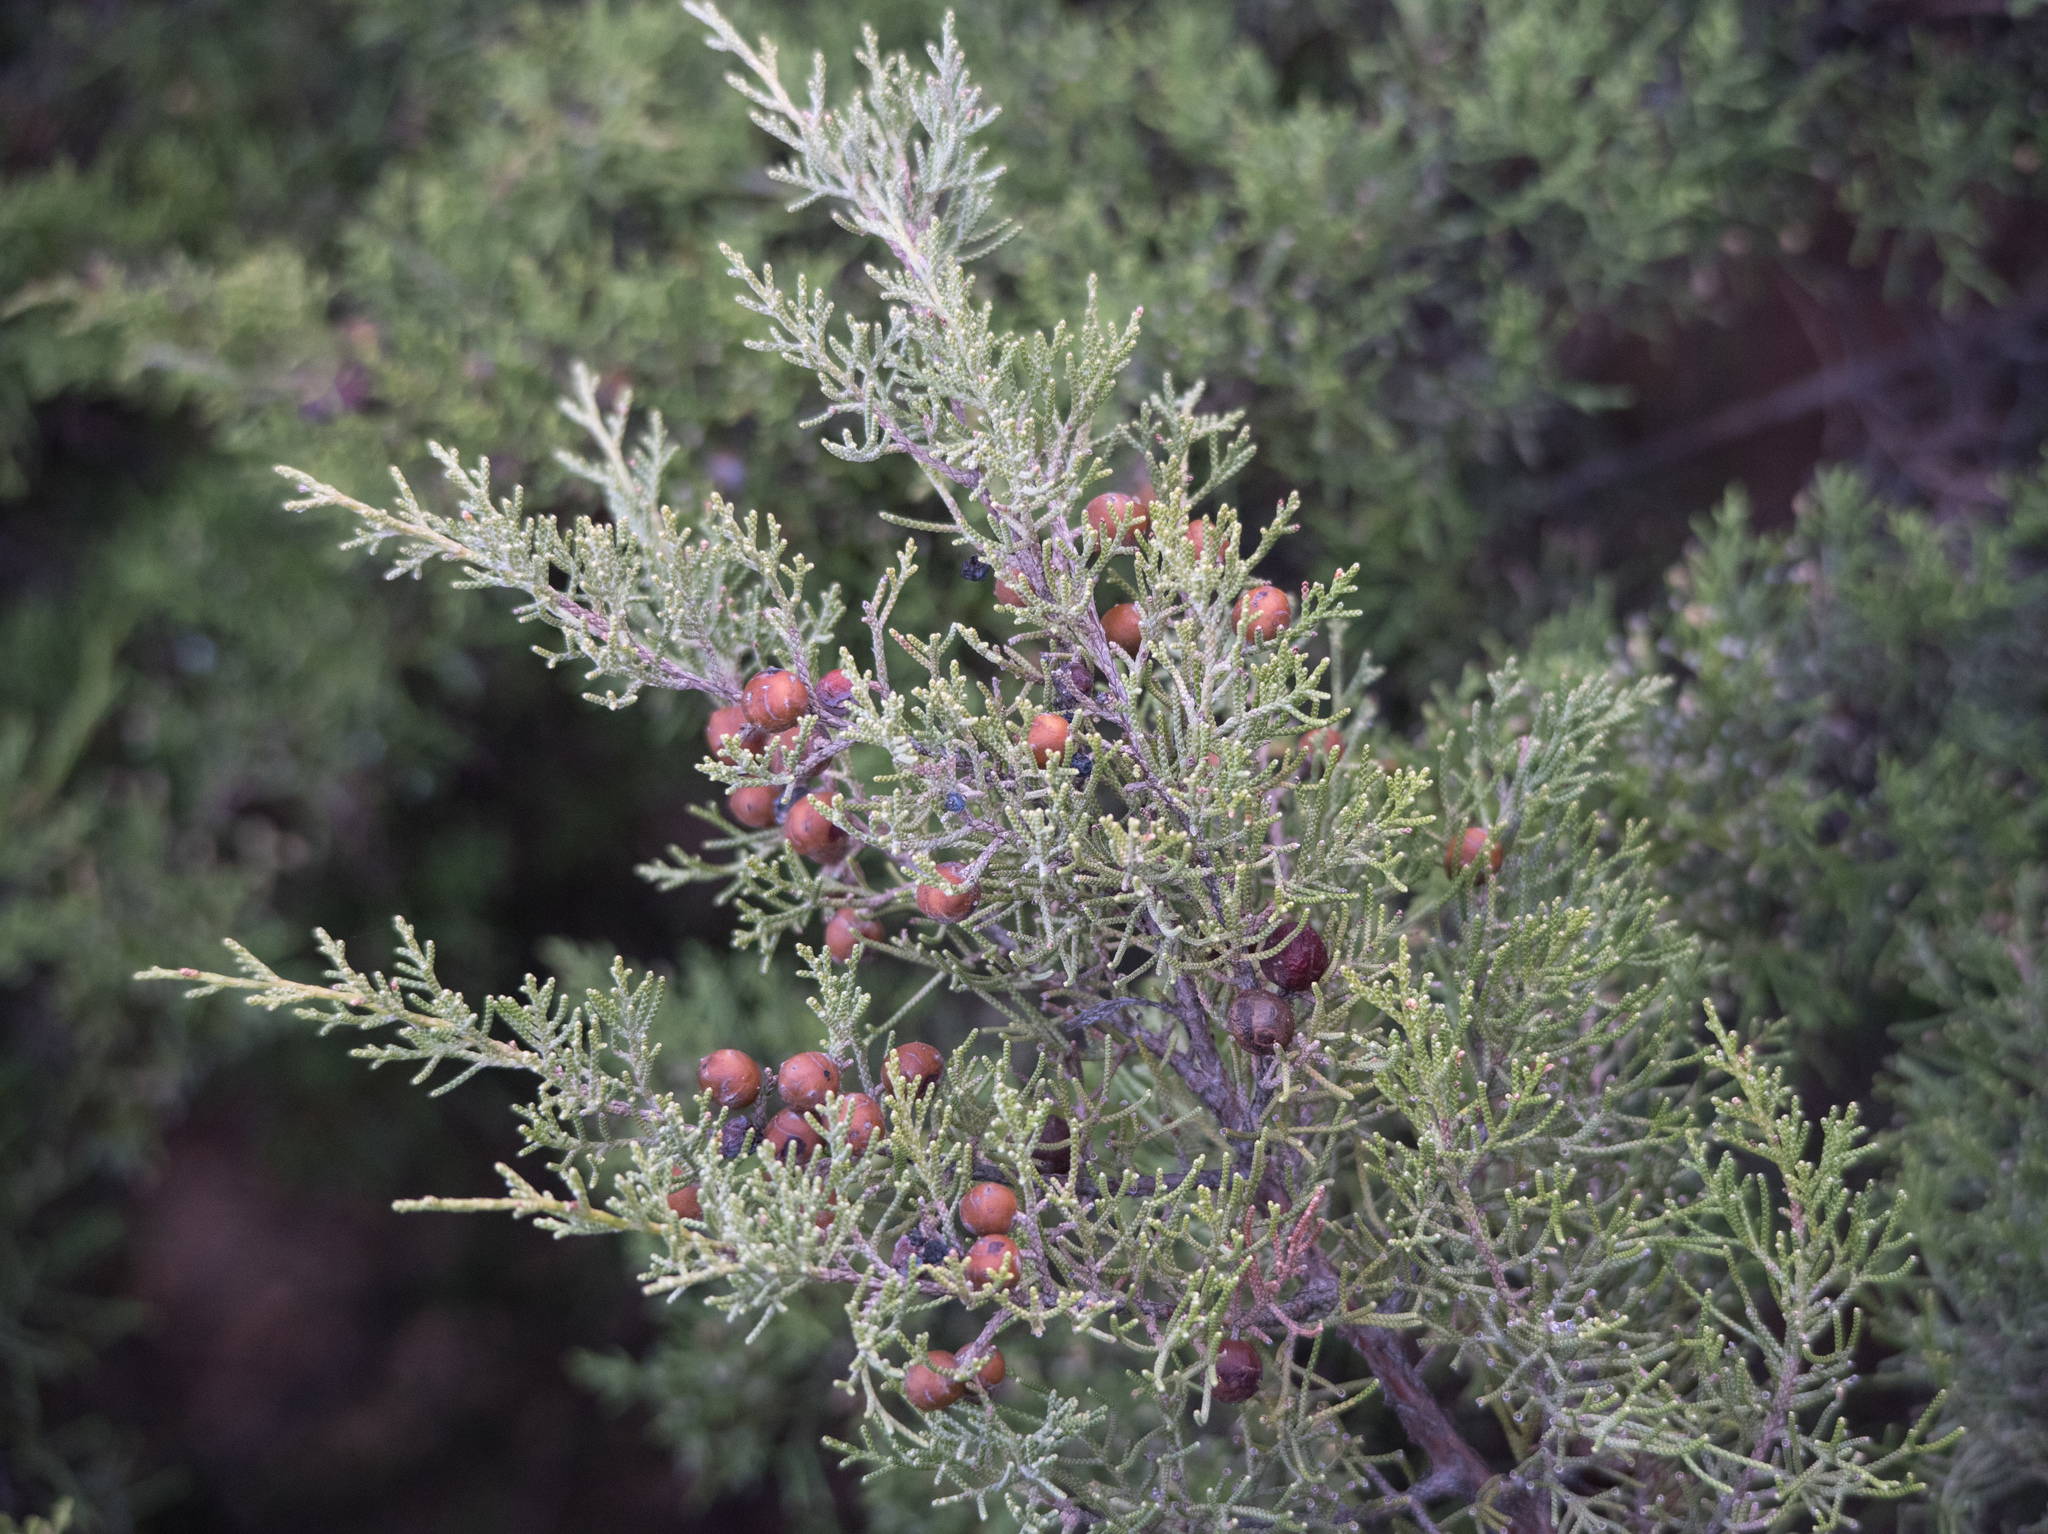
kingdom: Plantae
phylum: Tracheophyta
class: Pinopsida
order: Pinales
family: Cupressaceae
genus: Juniperus
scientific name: Juniperus phoenicea
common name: Phoenician juniper
